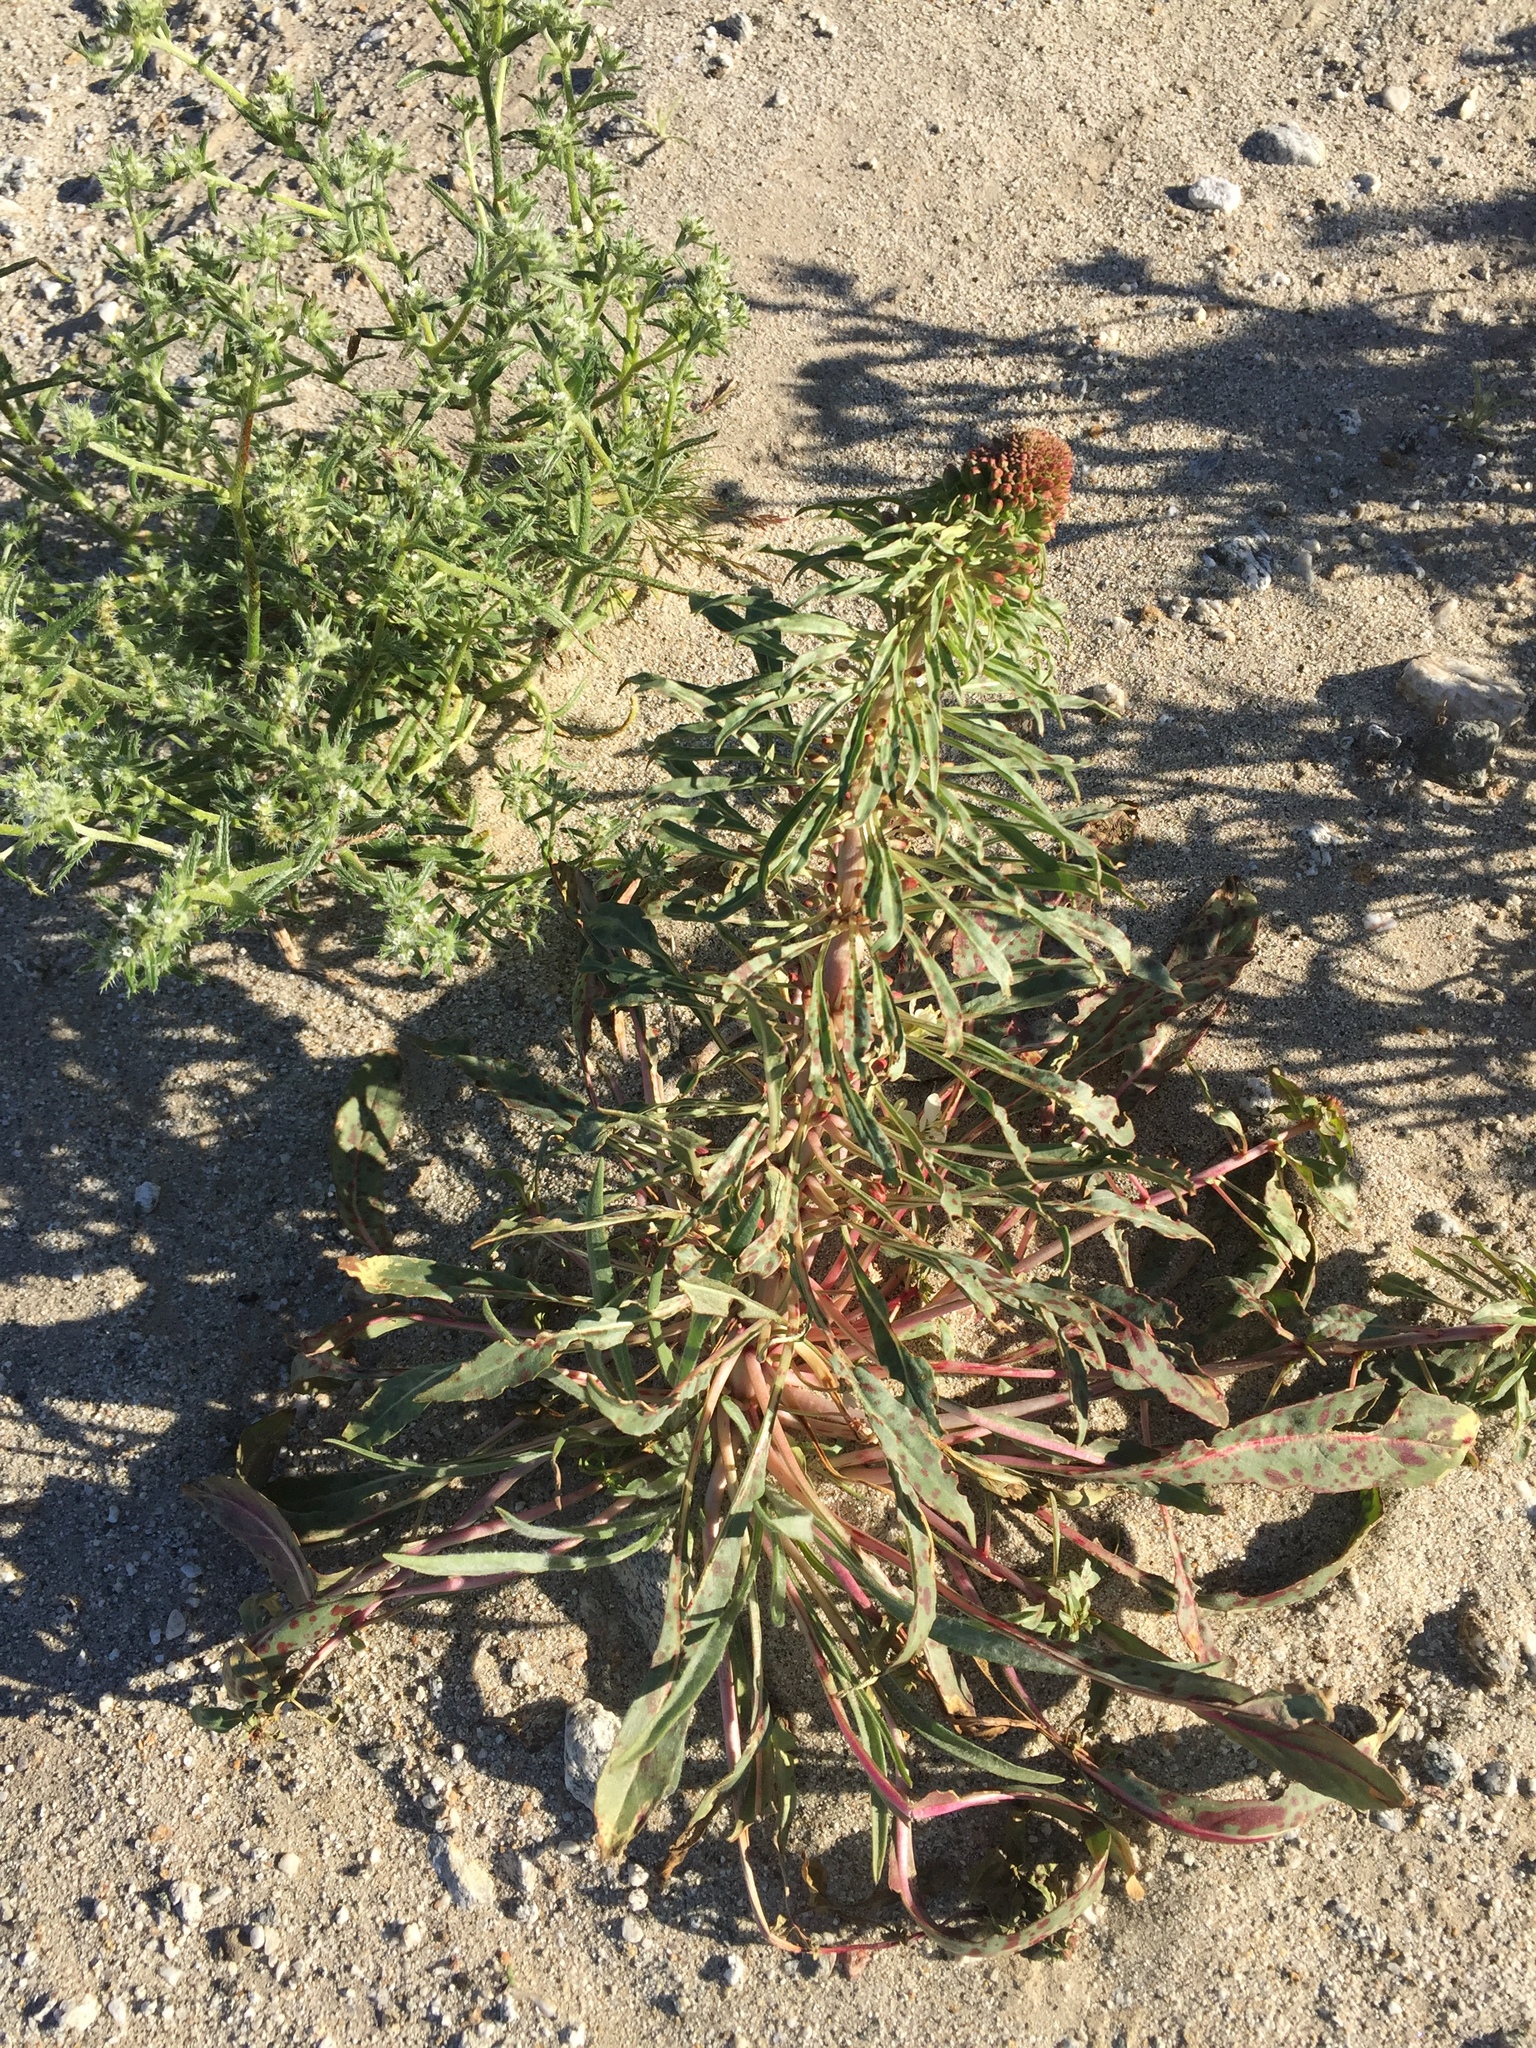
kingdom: Plantae
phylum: Tracheophyta
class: Magnoliopsida
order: Myrtales
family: Onagraceae
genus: Eremothera
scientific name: Eremothera boothii
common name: Booth's evening primrose
